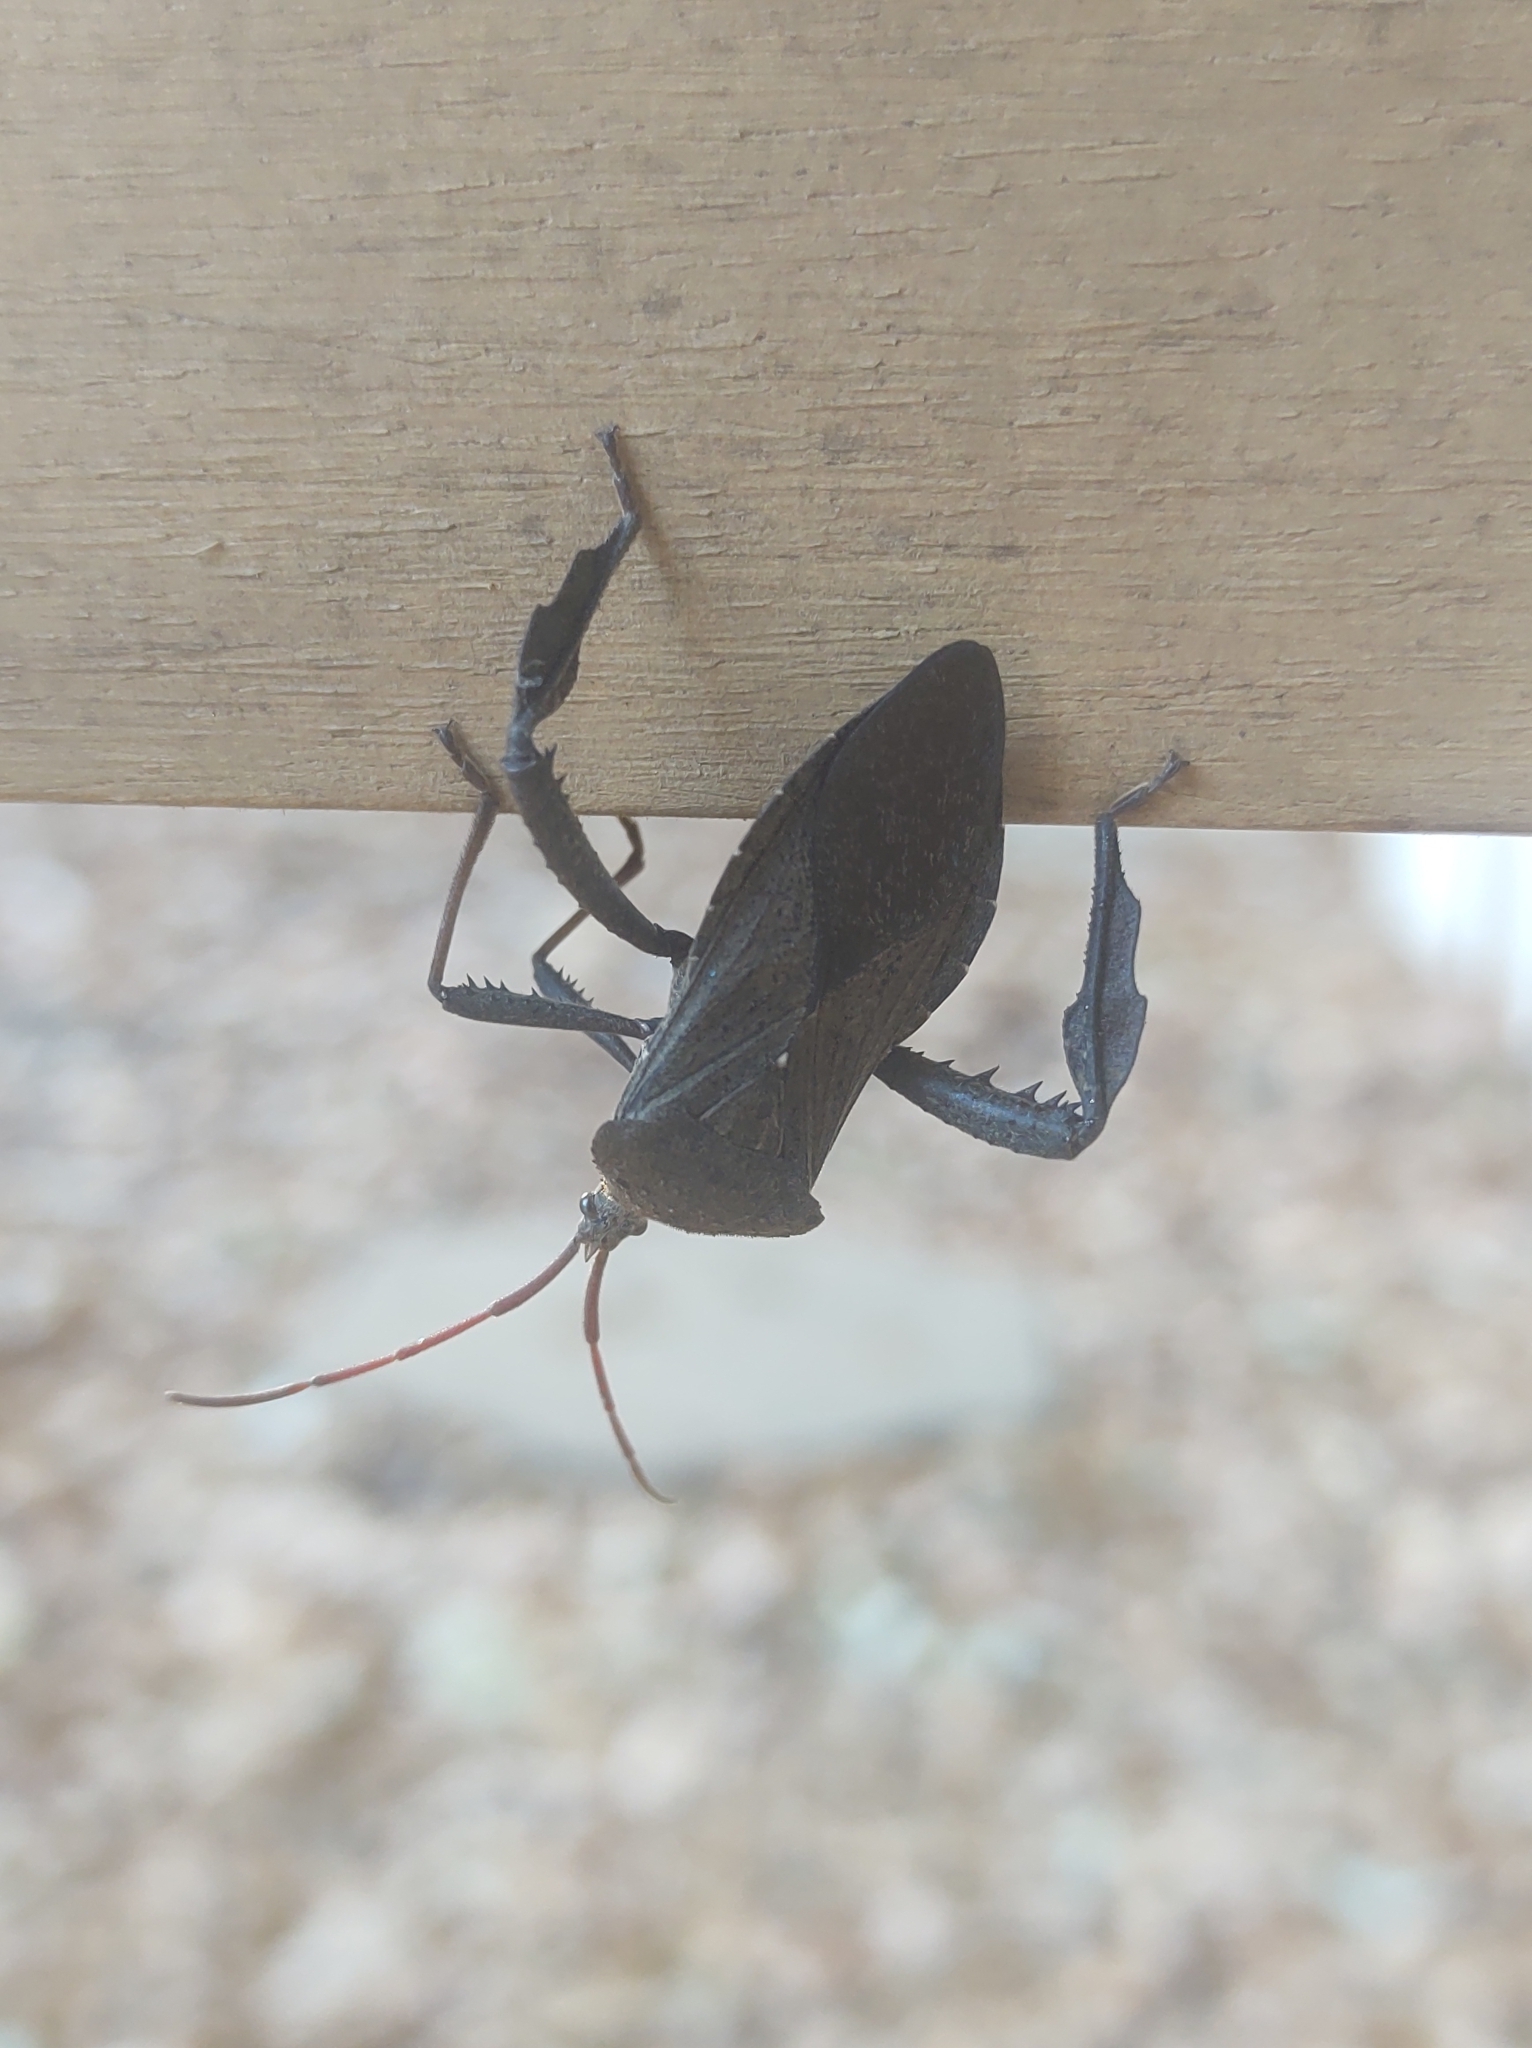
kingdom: Animalia
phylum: Arthropoda
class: Insecta
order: Hemiptera
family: Coreidae
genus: Acanthocephala
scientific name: Acanthocephala femorata
